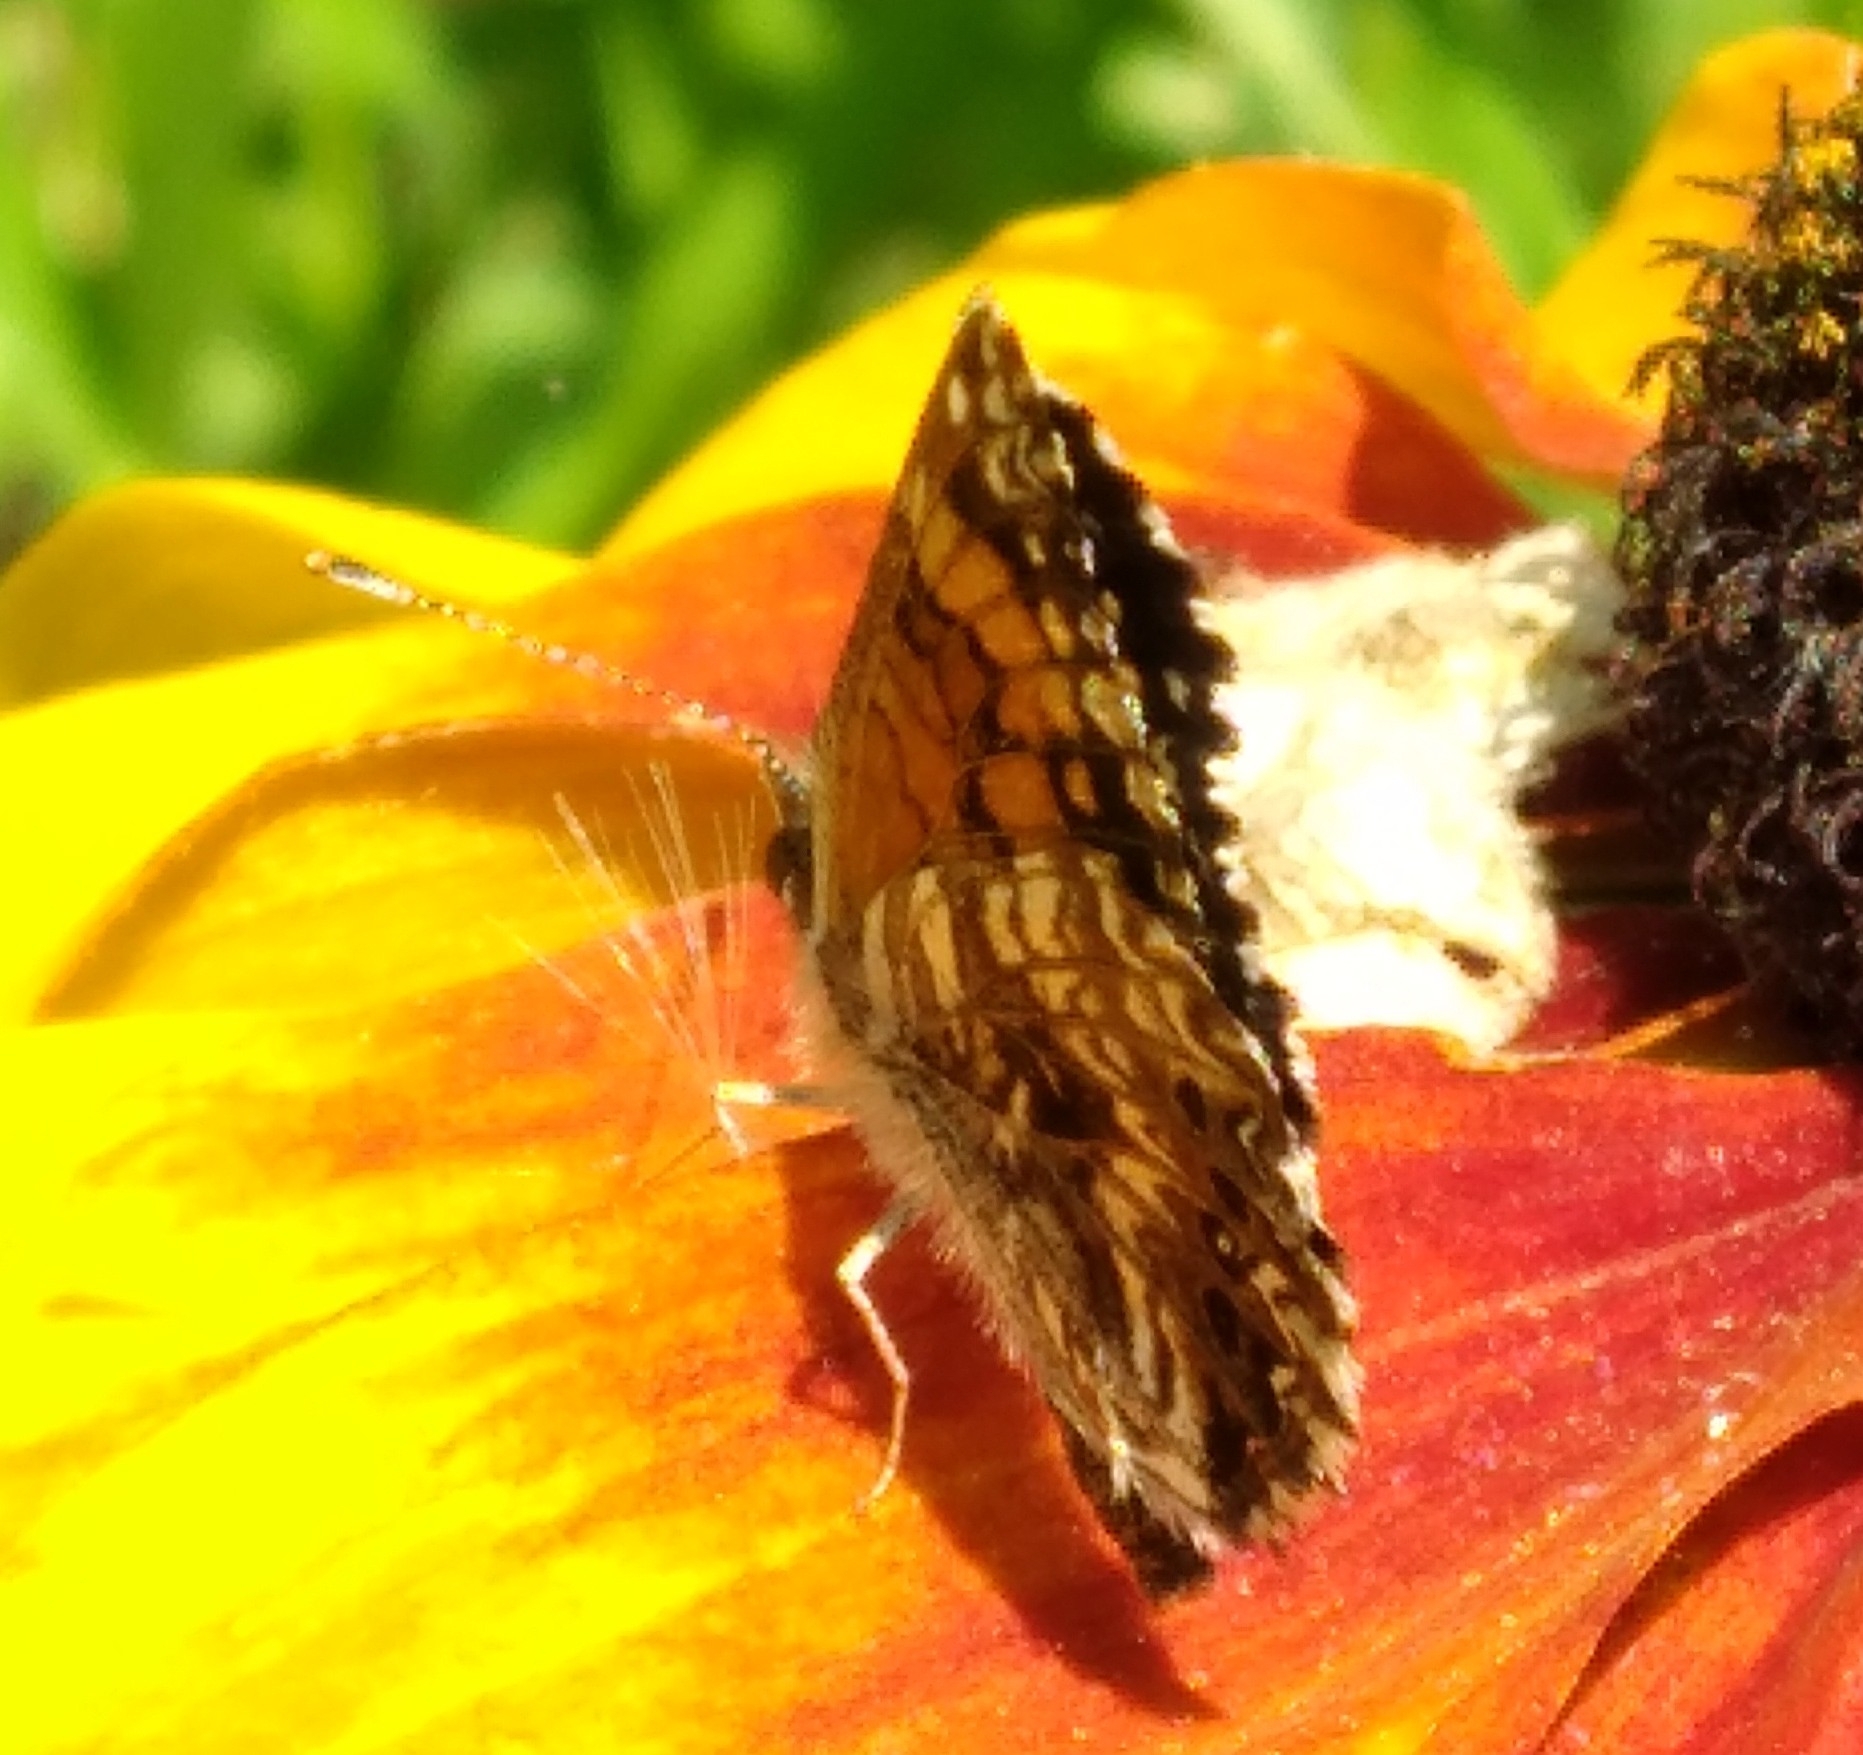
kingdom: Animalia
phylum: Arthropoda
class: Insecta
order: Lepidoptera
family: Nymphalidae
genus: Chlosyne
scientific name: Chlosyne gorgone
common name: Gorgone checkerspot
